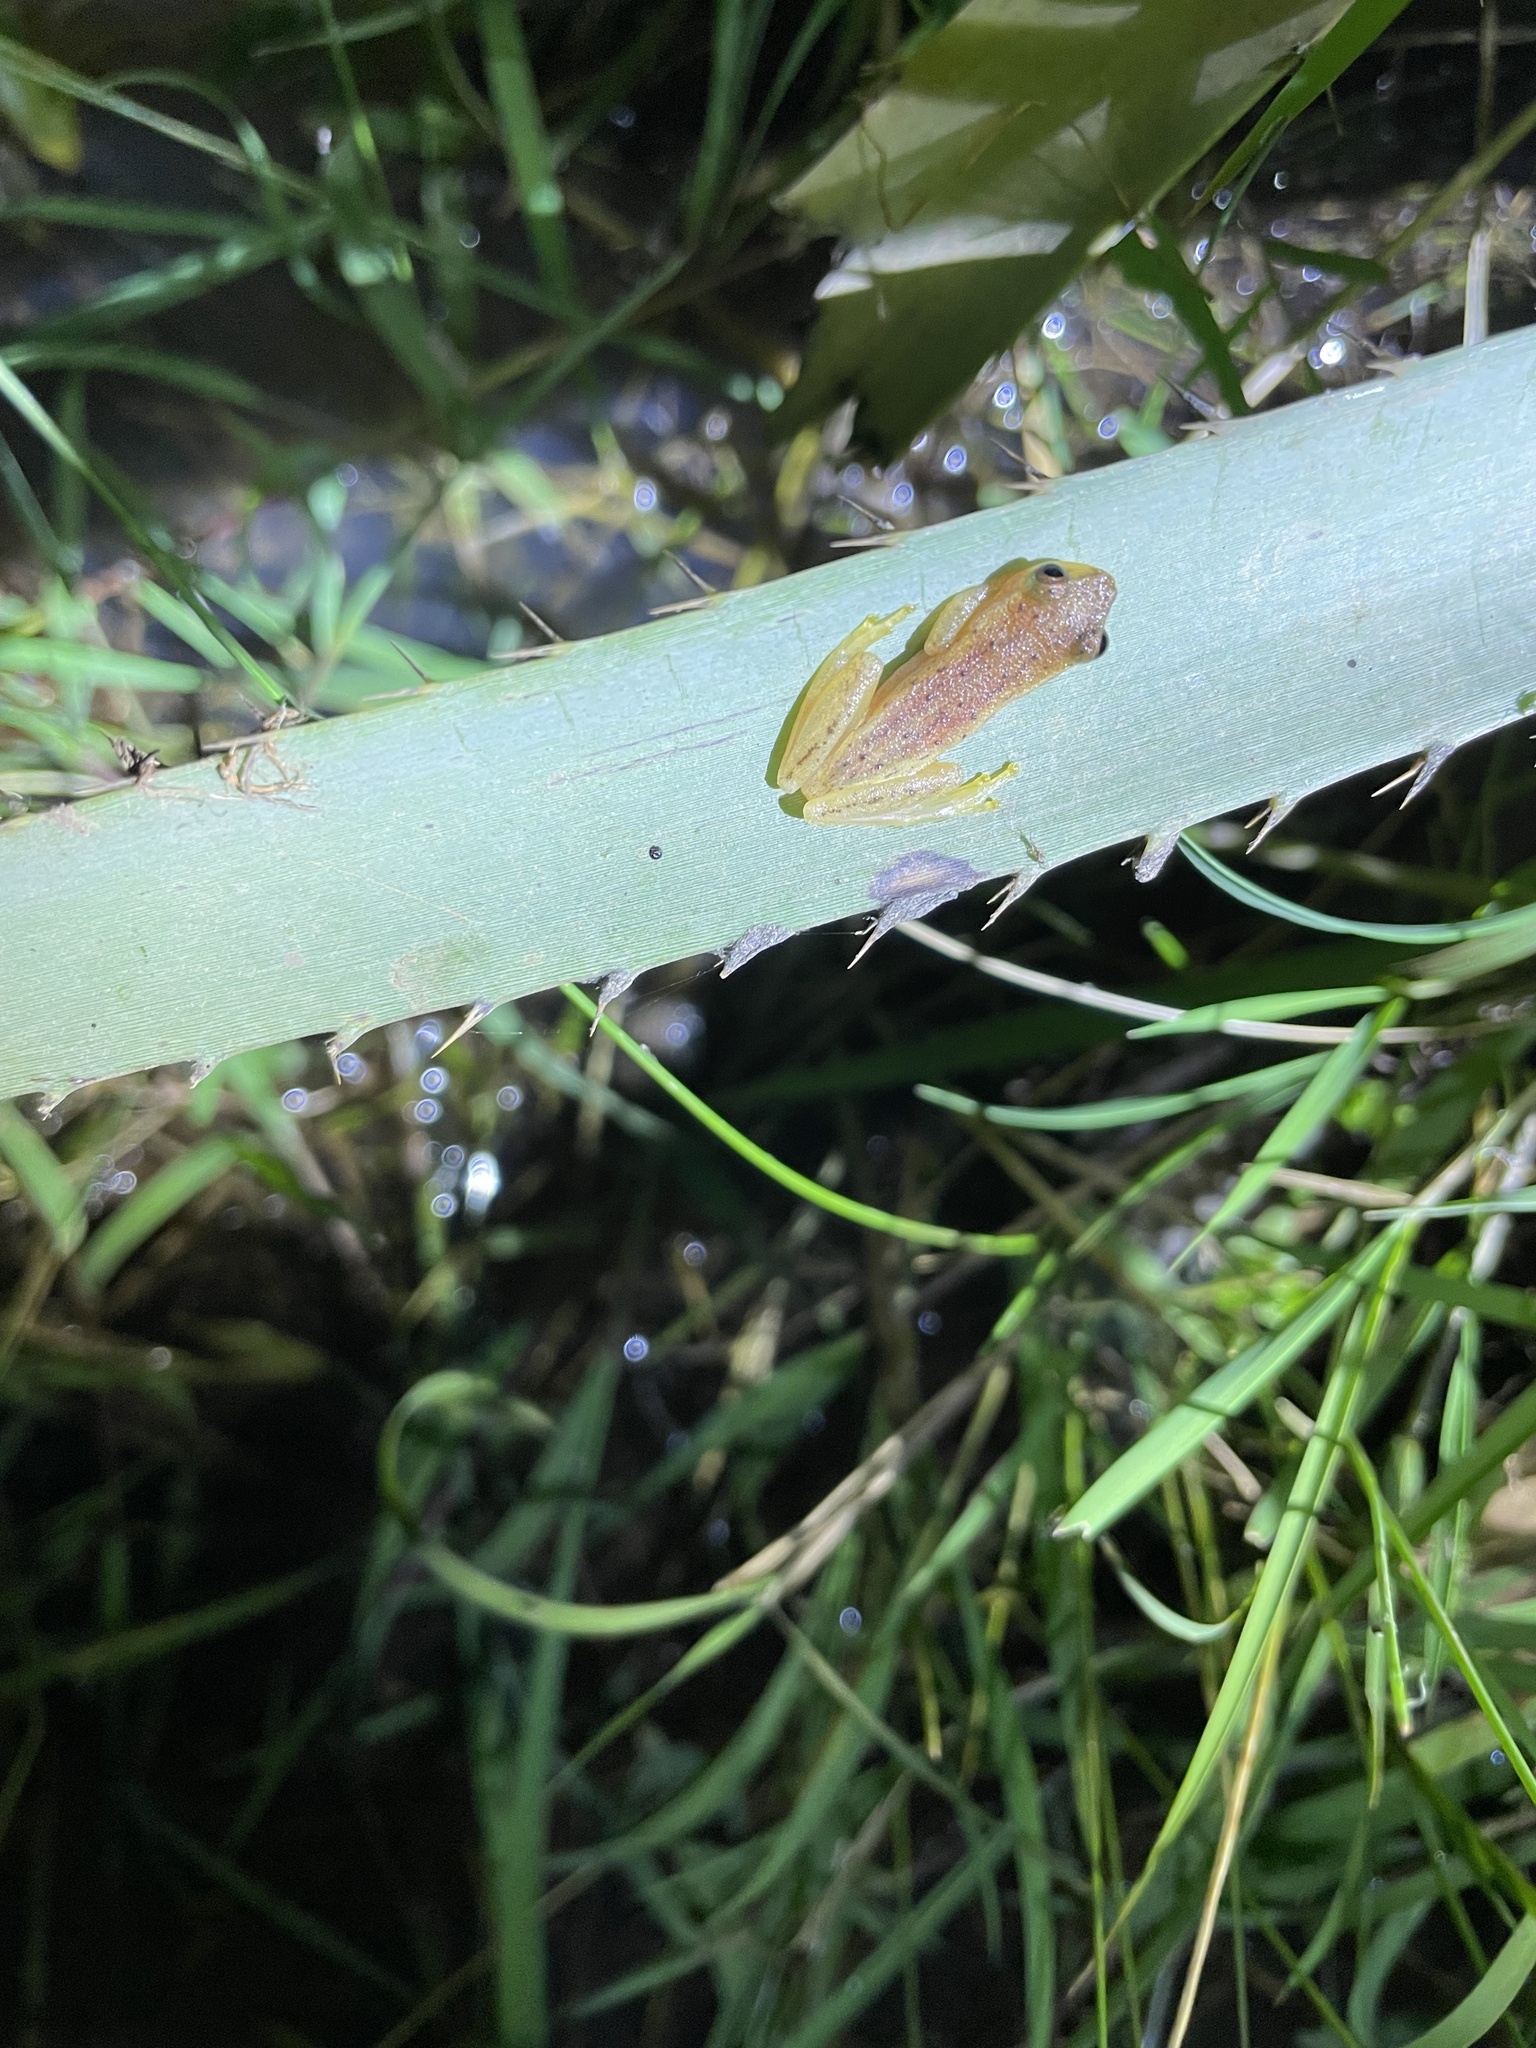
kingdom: Animalia
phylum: Chordata
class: Amphibia
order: Anura
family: Hylidae
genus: Dendropsophus
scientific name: Dendropsophus sanborni
